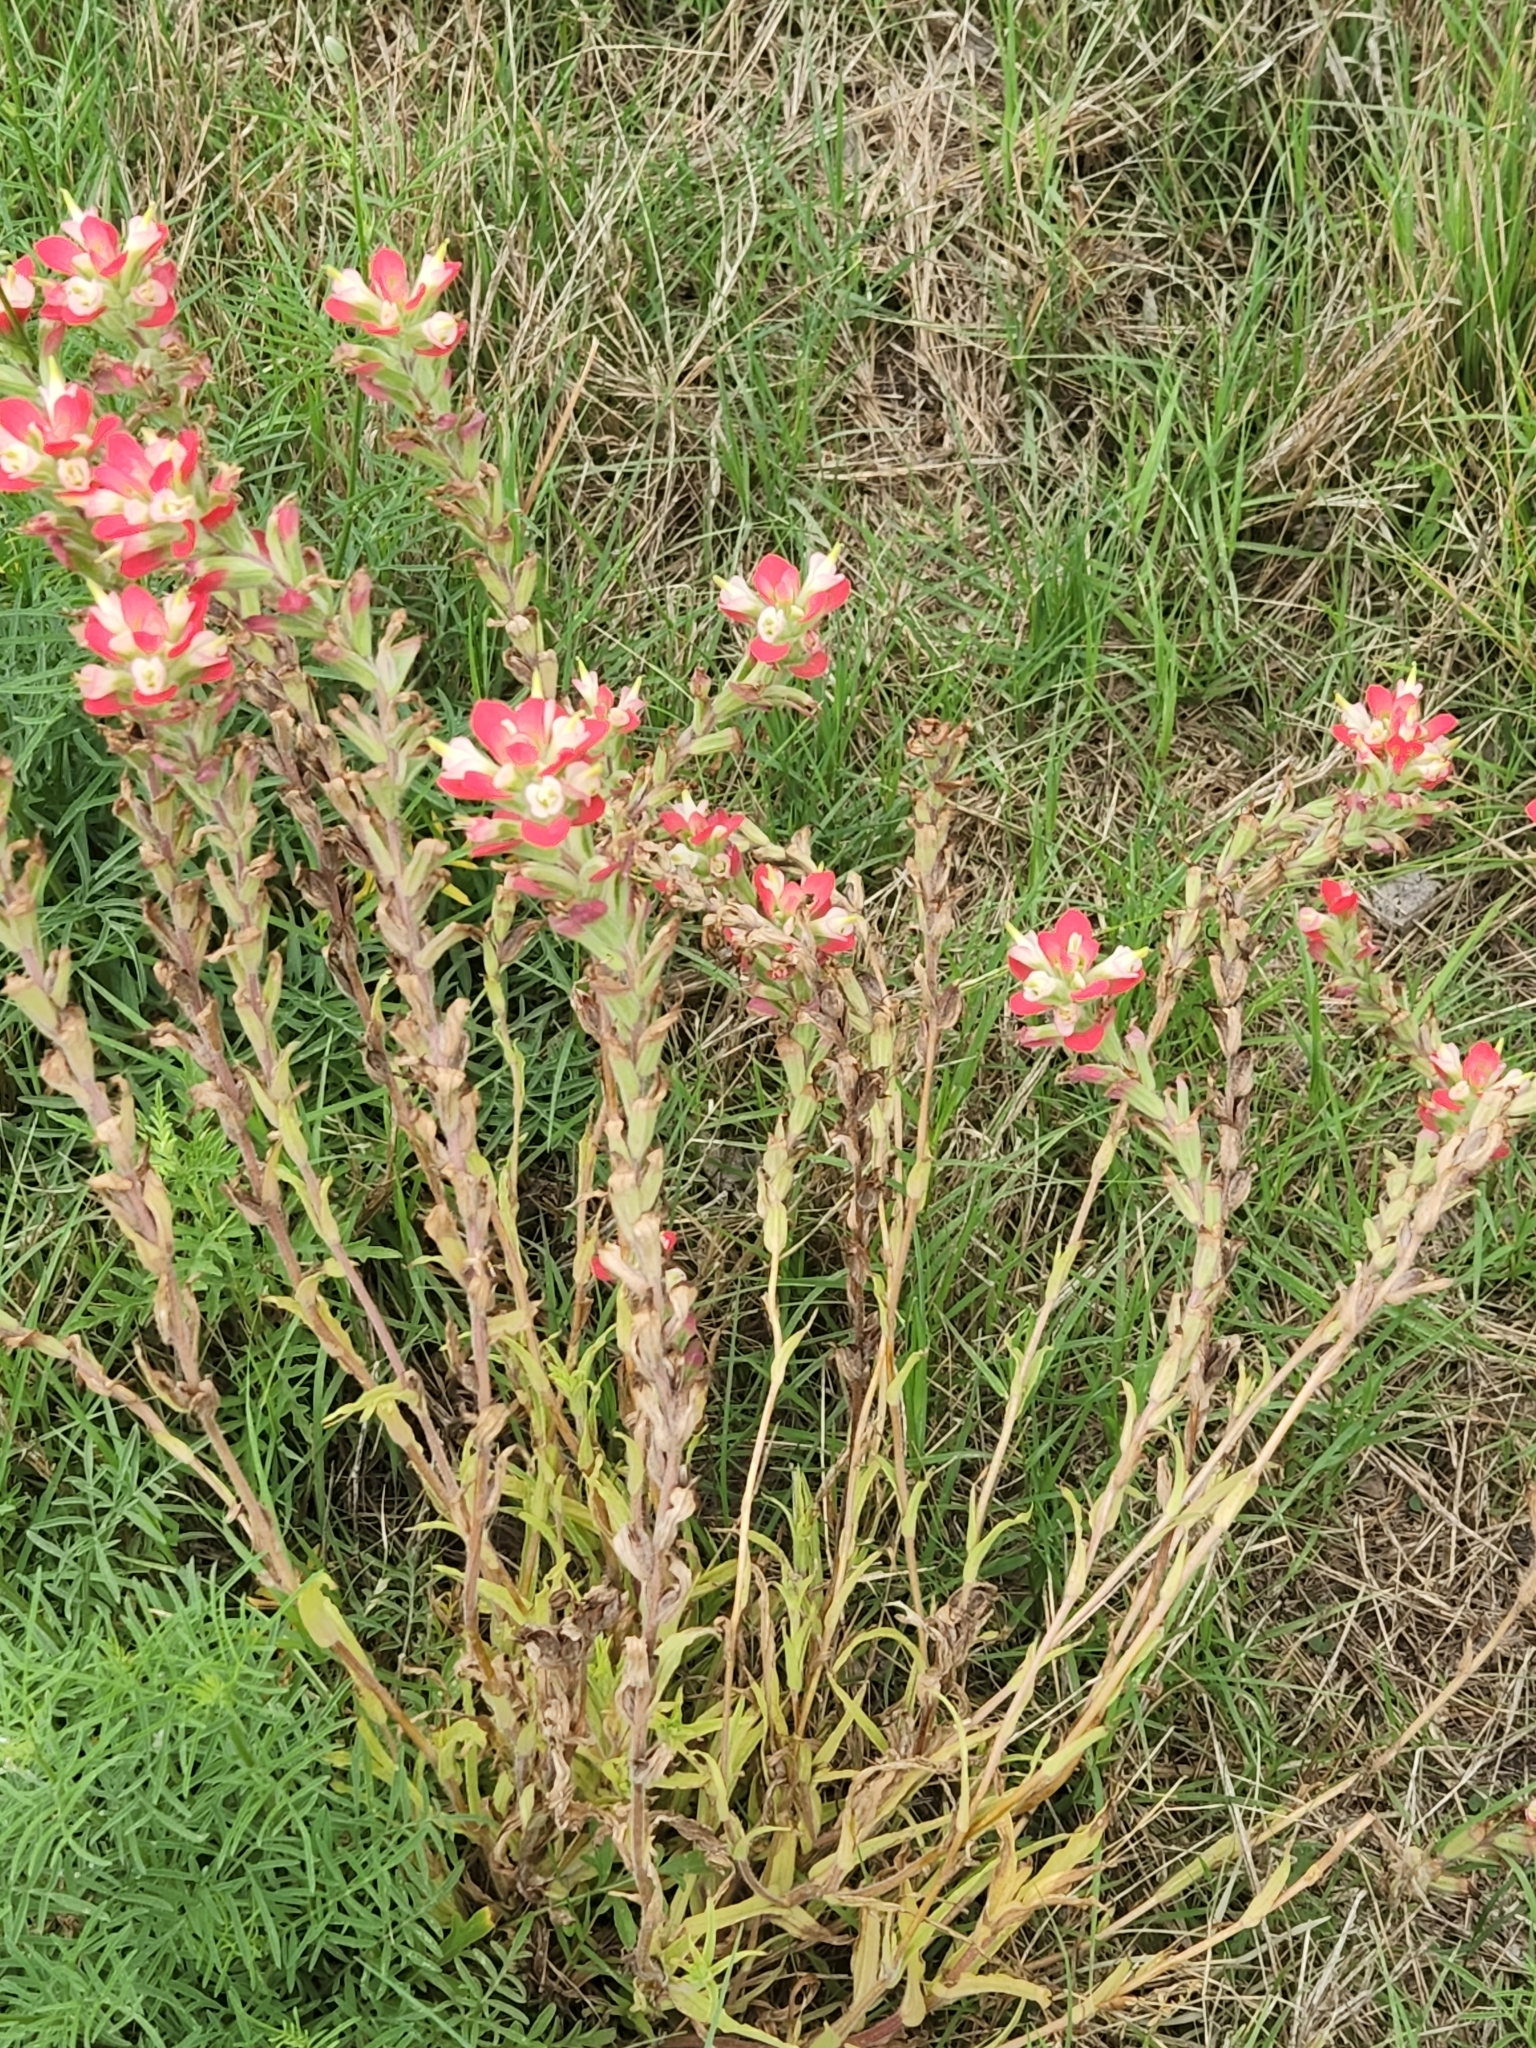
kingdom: Plantae
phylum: Tracheophyta
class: Magnoliopsida
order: Lamiales
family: Orobanchaceae
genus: Castilleja
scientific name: Castilleja indivisa
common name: Texas paintbrush
